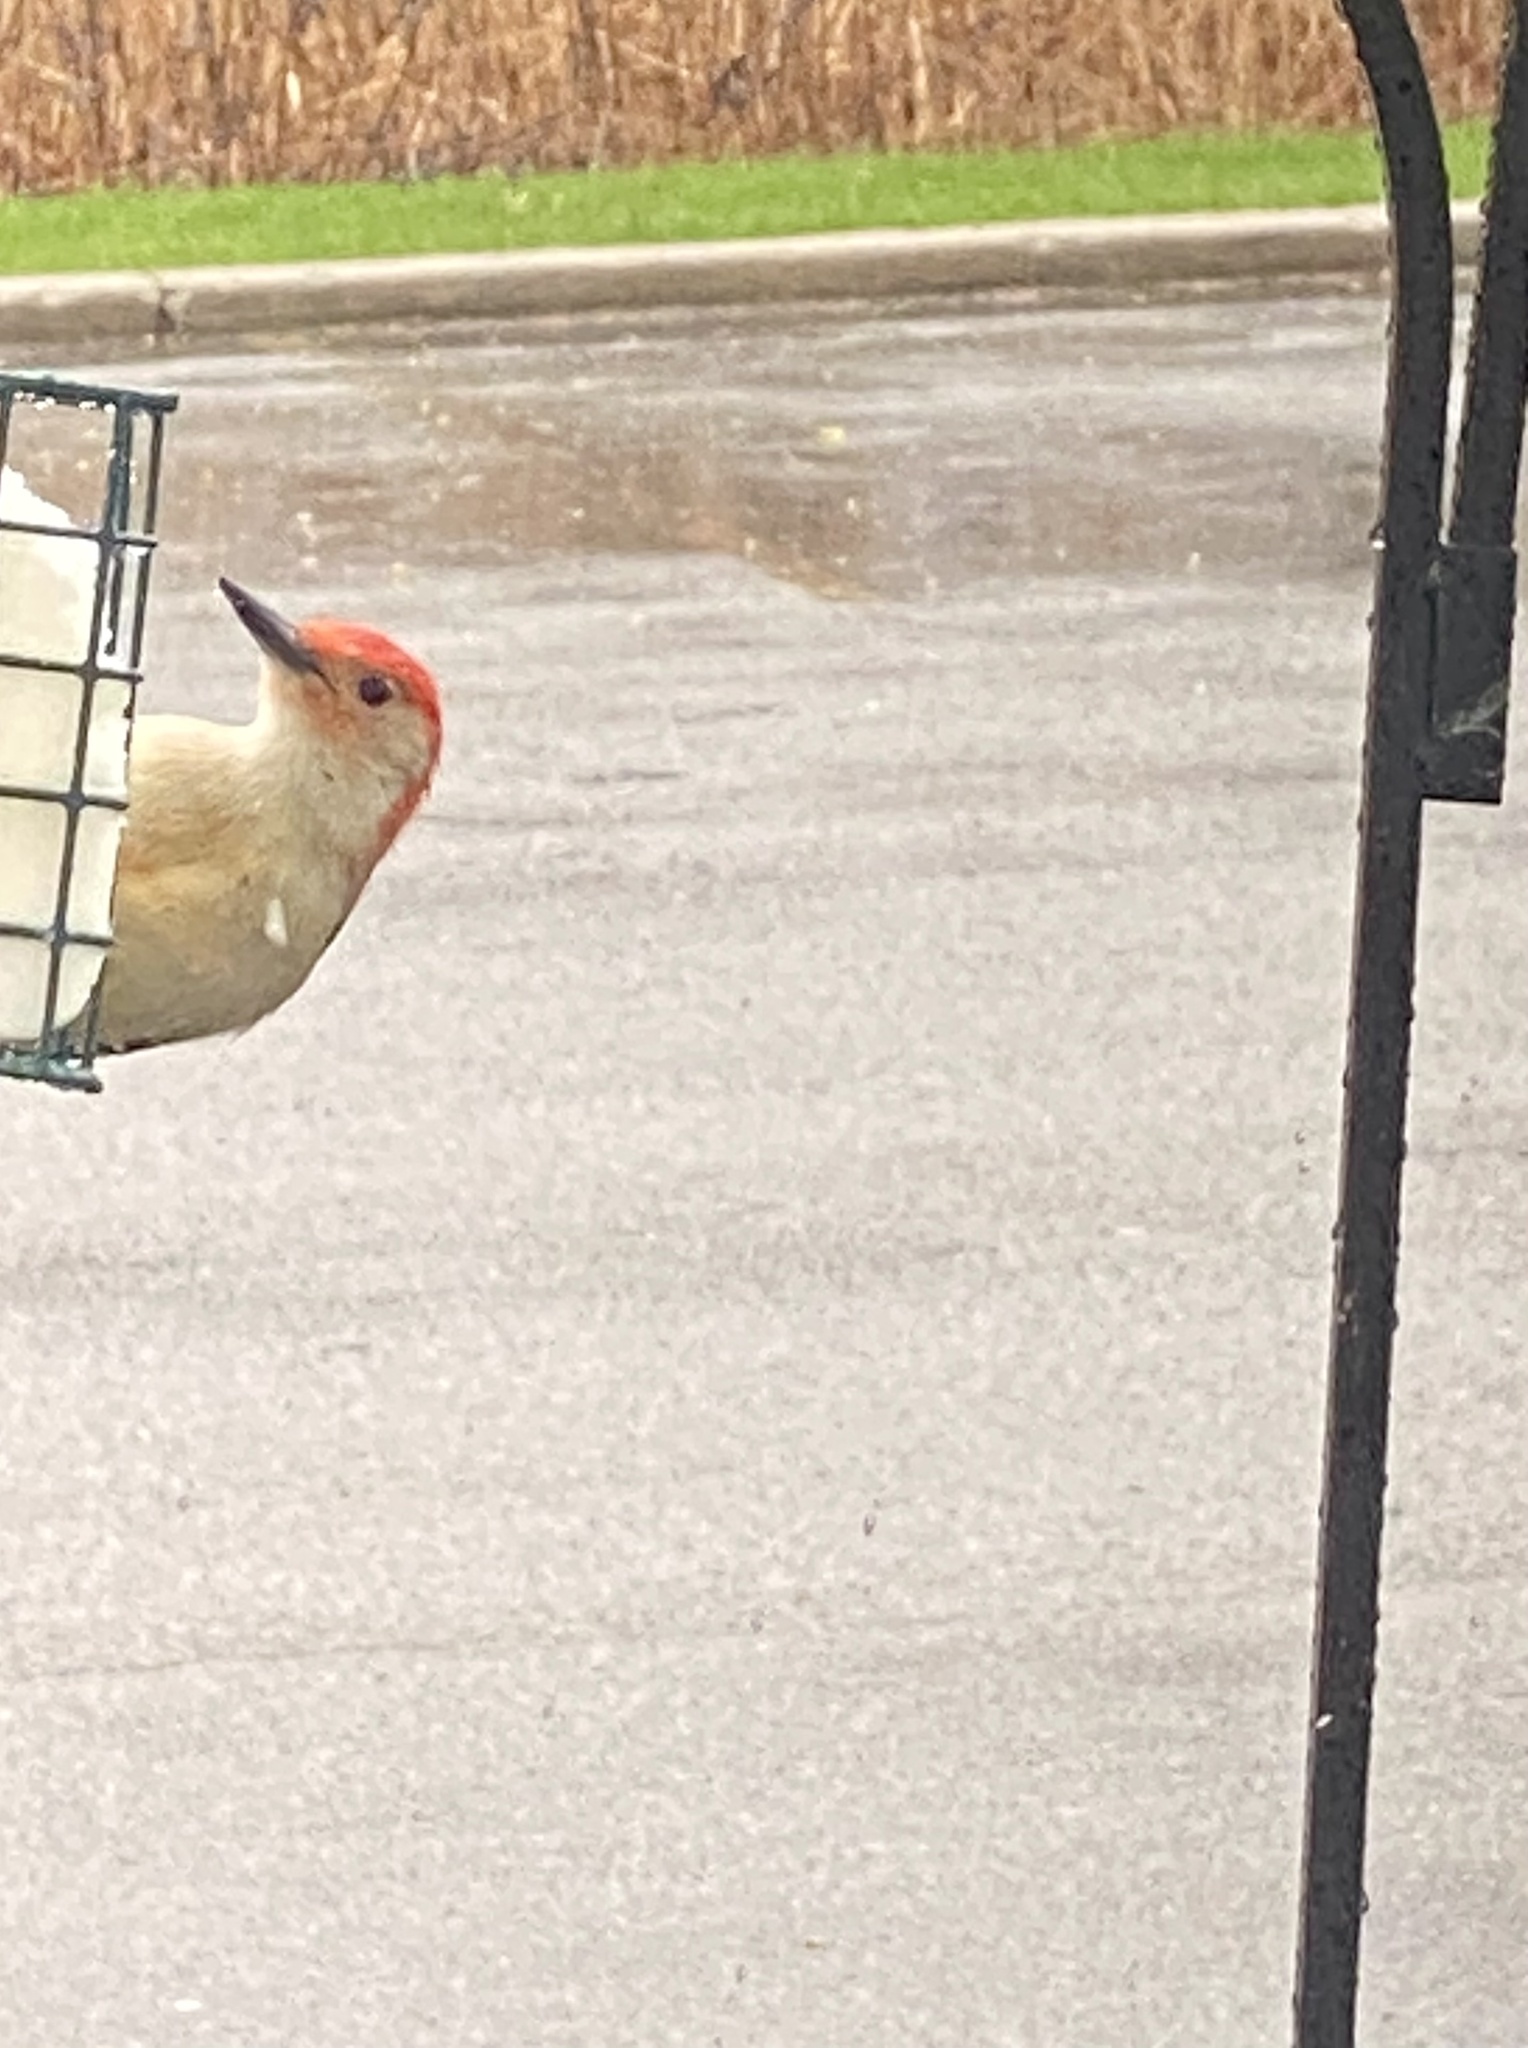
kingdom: Animalia
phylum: Chordata
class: Aves
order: Piciformes
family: Picidae
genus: Melanerpes
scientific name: Melanerpes carolinus
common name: Red-bellied woodpecker
